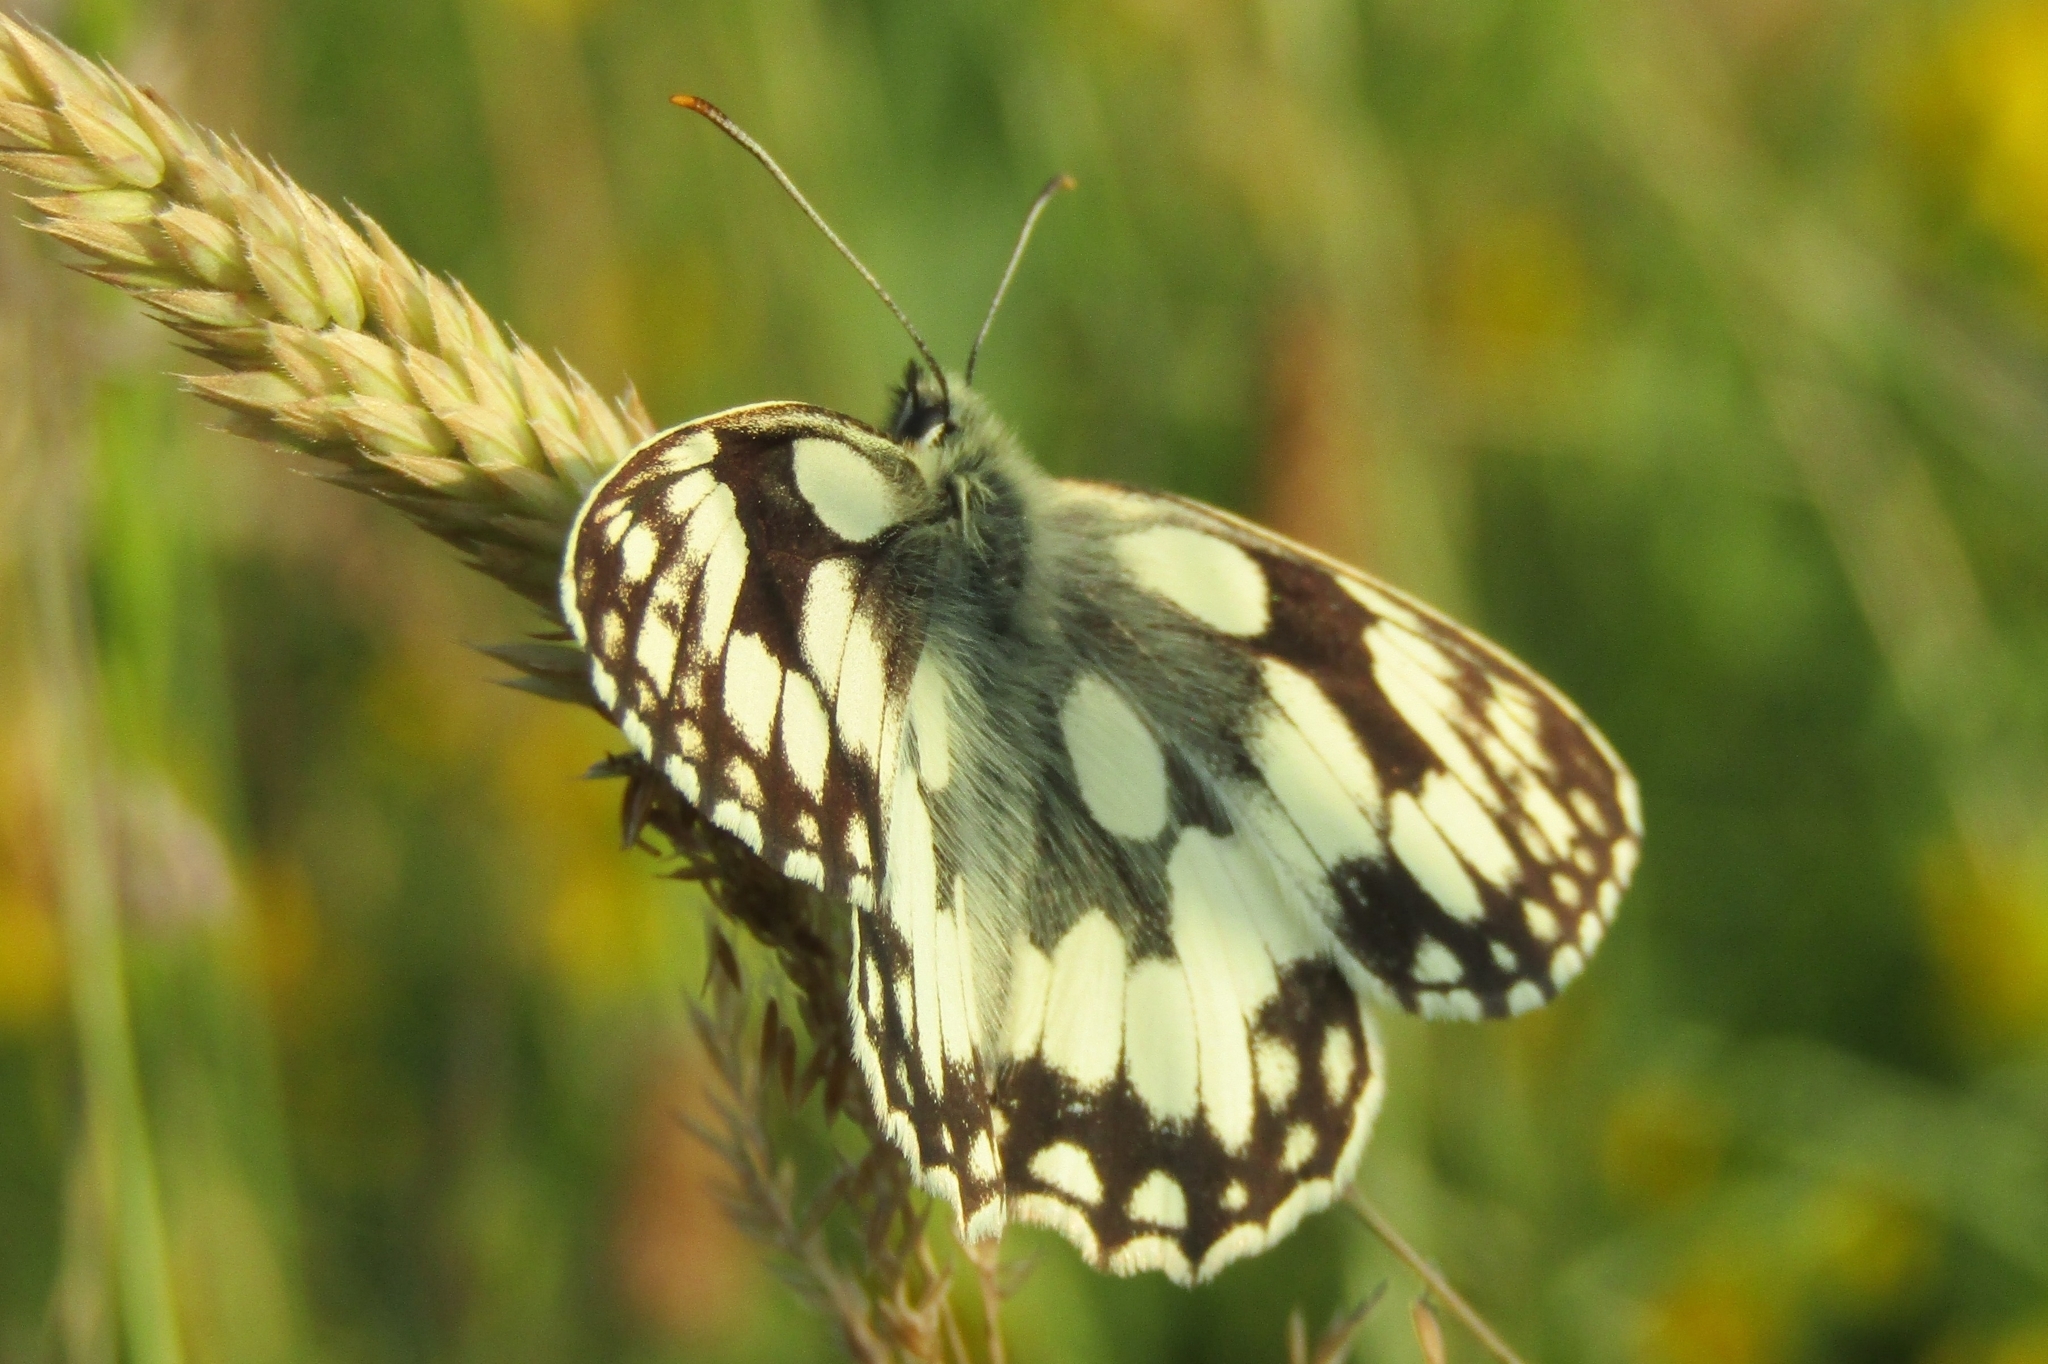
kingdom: Animalia
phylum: Arthropoda
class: Insecta
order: Lepidoptera
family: Nymphalidae
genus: Melanargia
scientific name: Melanargia galathea
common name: Marbled white
